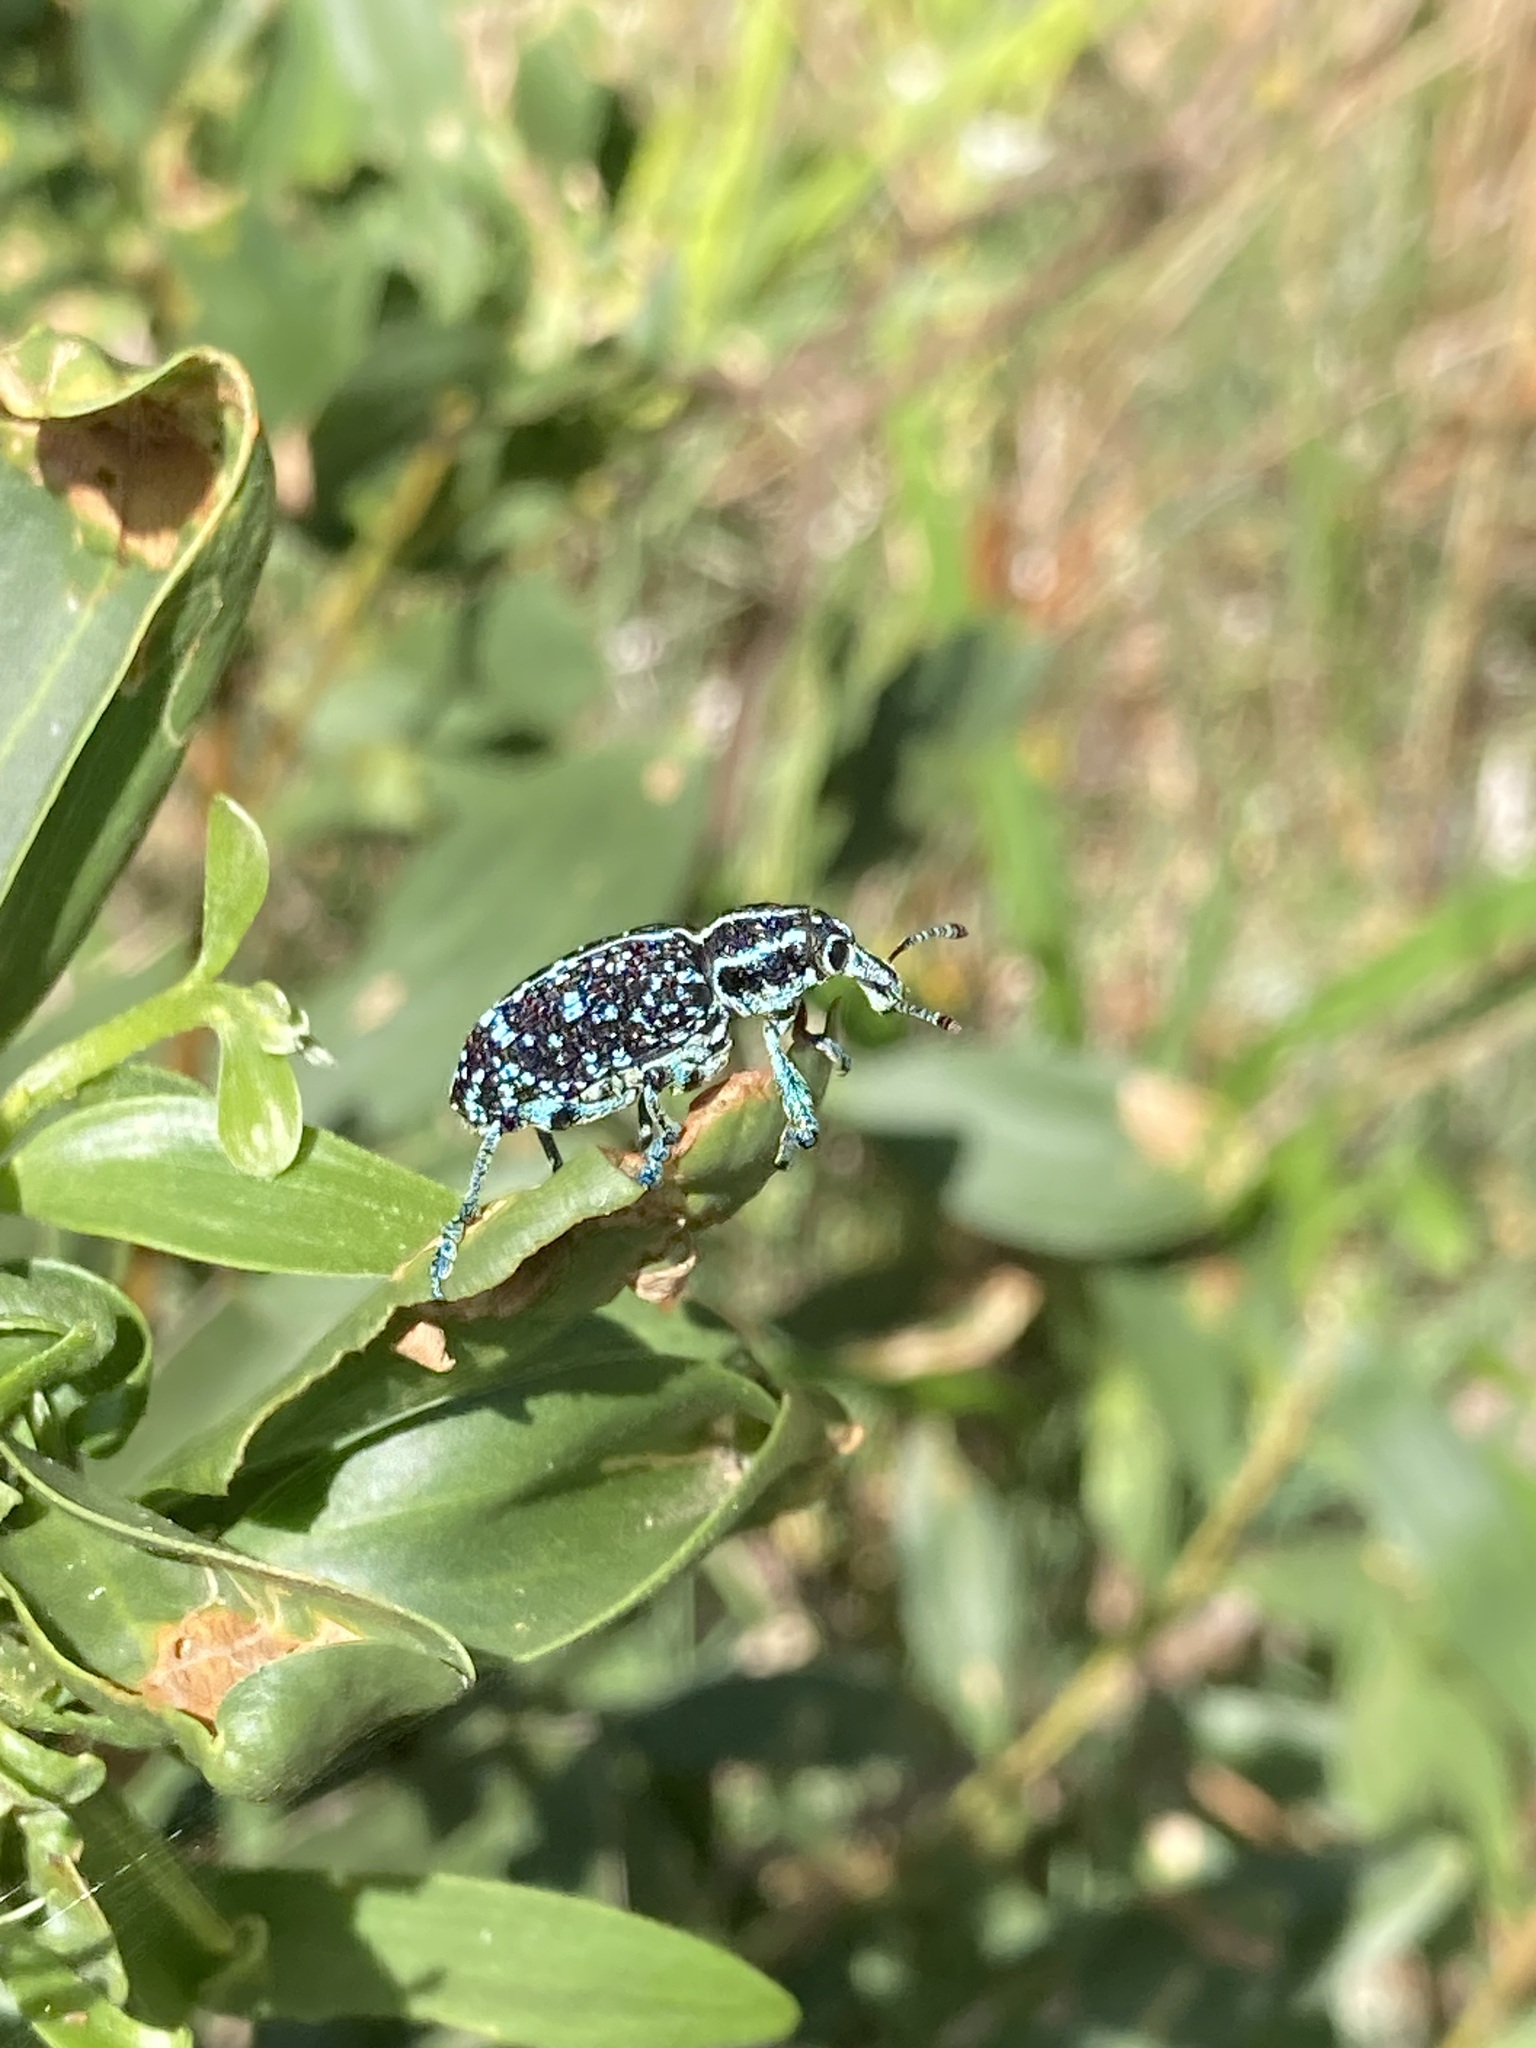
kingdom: Animalia
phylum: Arthropoda
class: Insecta
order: Coleoptera
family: Curculionidae
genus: Chrysolopus
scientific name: Chrysolopus spectabilis
